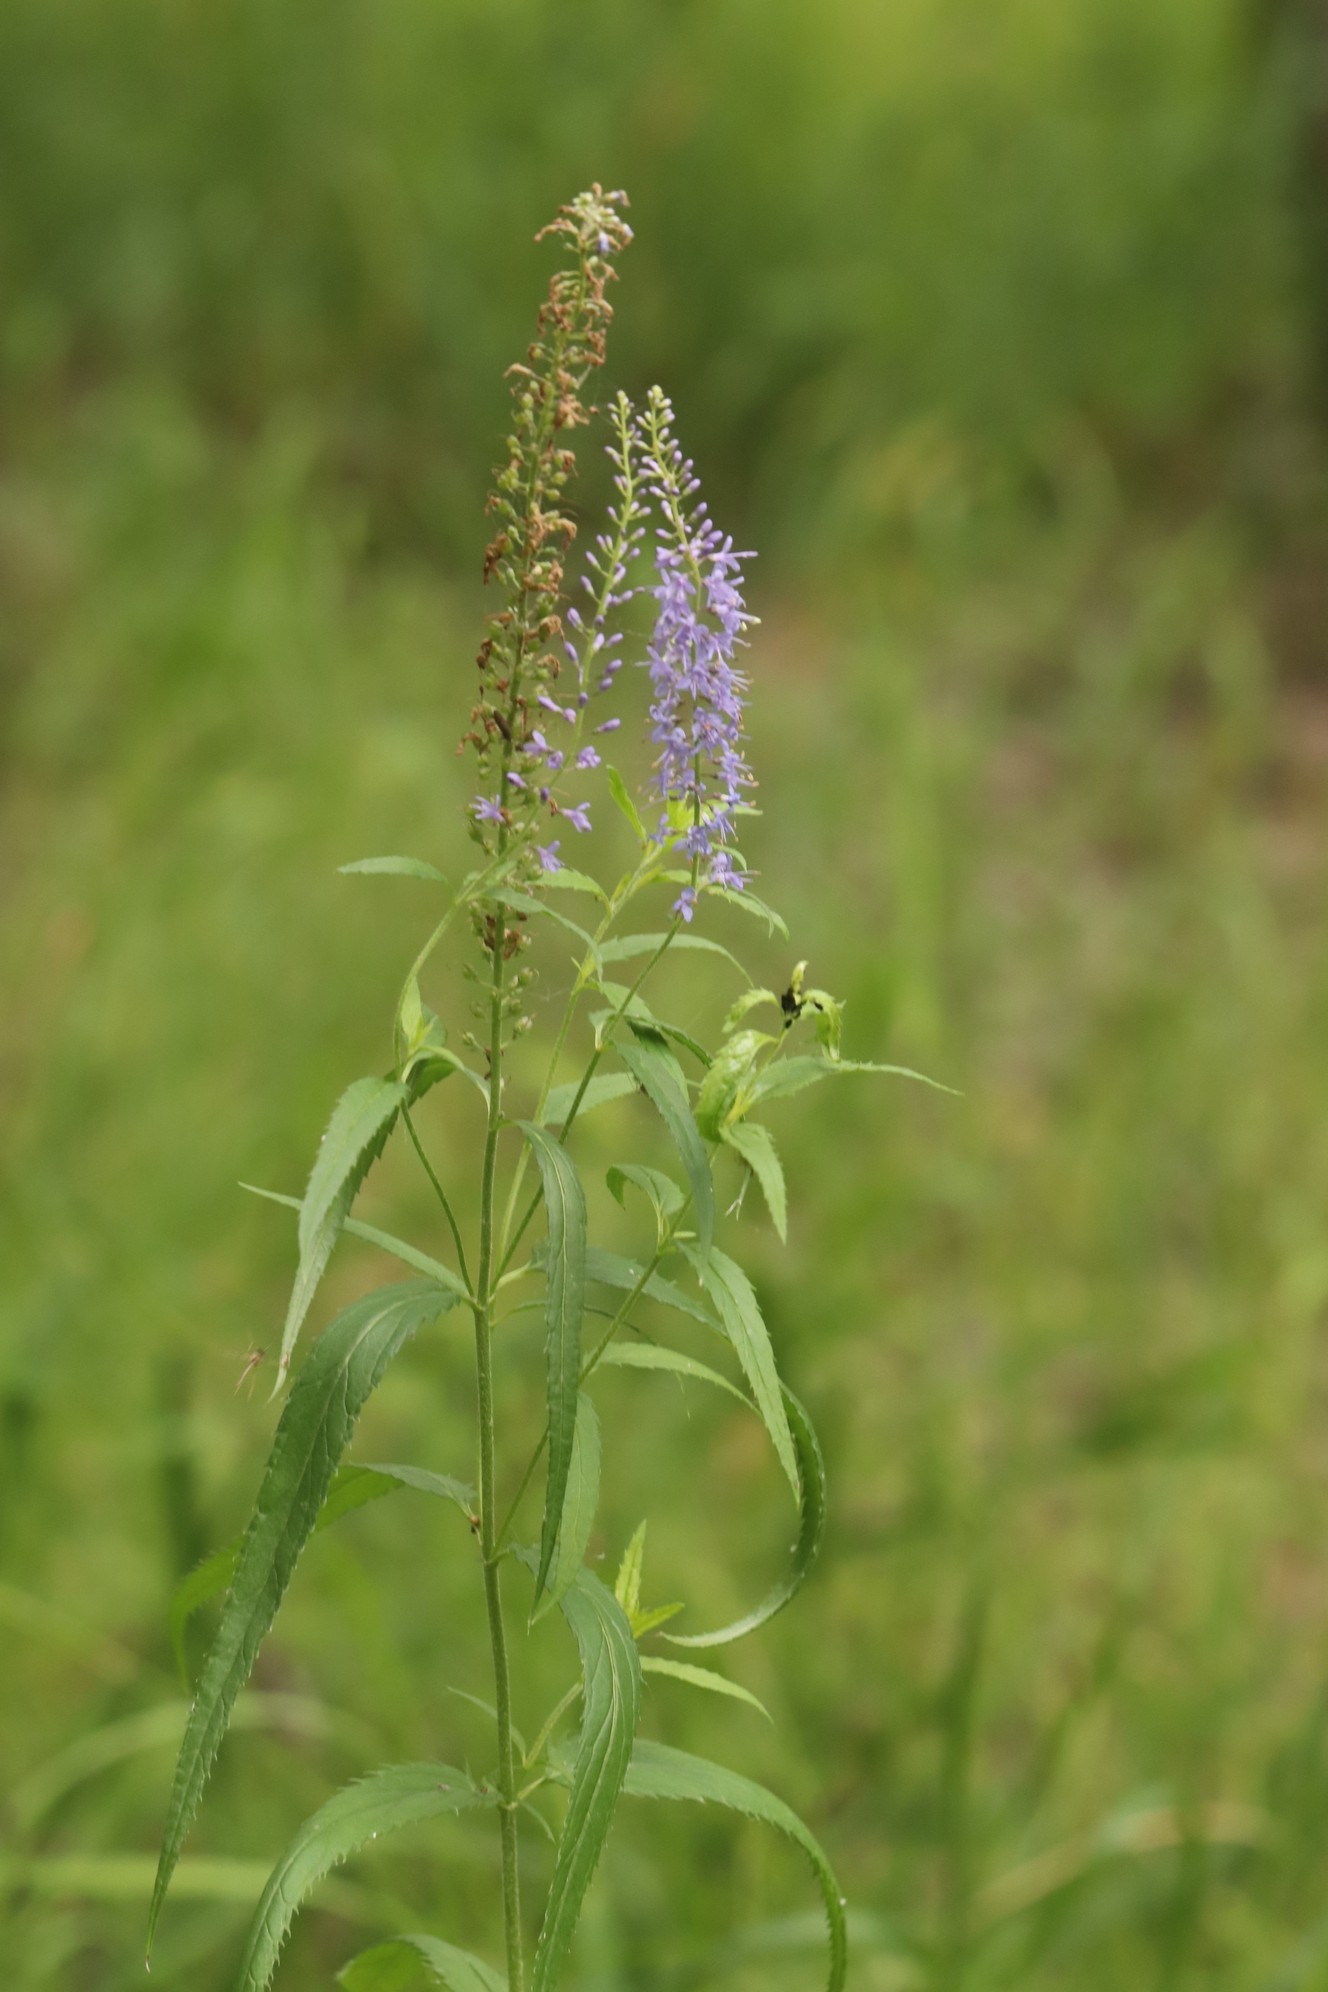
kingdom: Plantae
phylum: Tracheophyta
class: Magnoliopsida
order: Lamiales
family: Plantaginaceae
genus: Veronica
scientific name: Veronica longifolia
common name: Garden speedwell
